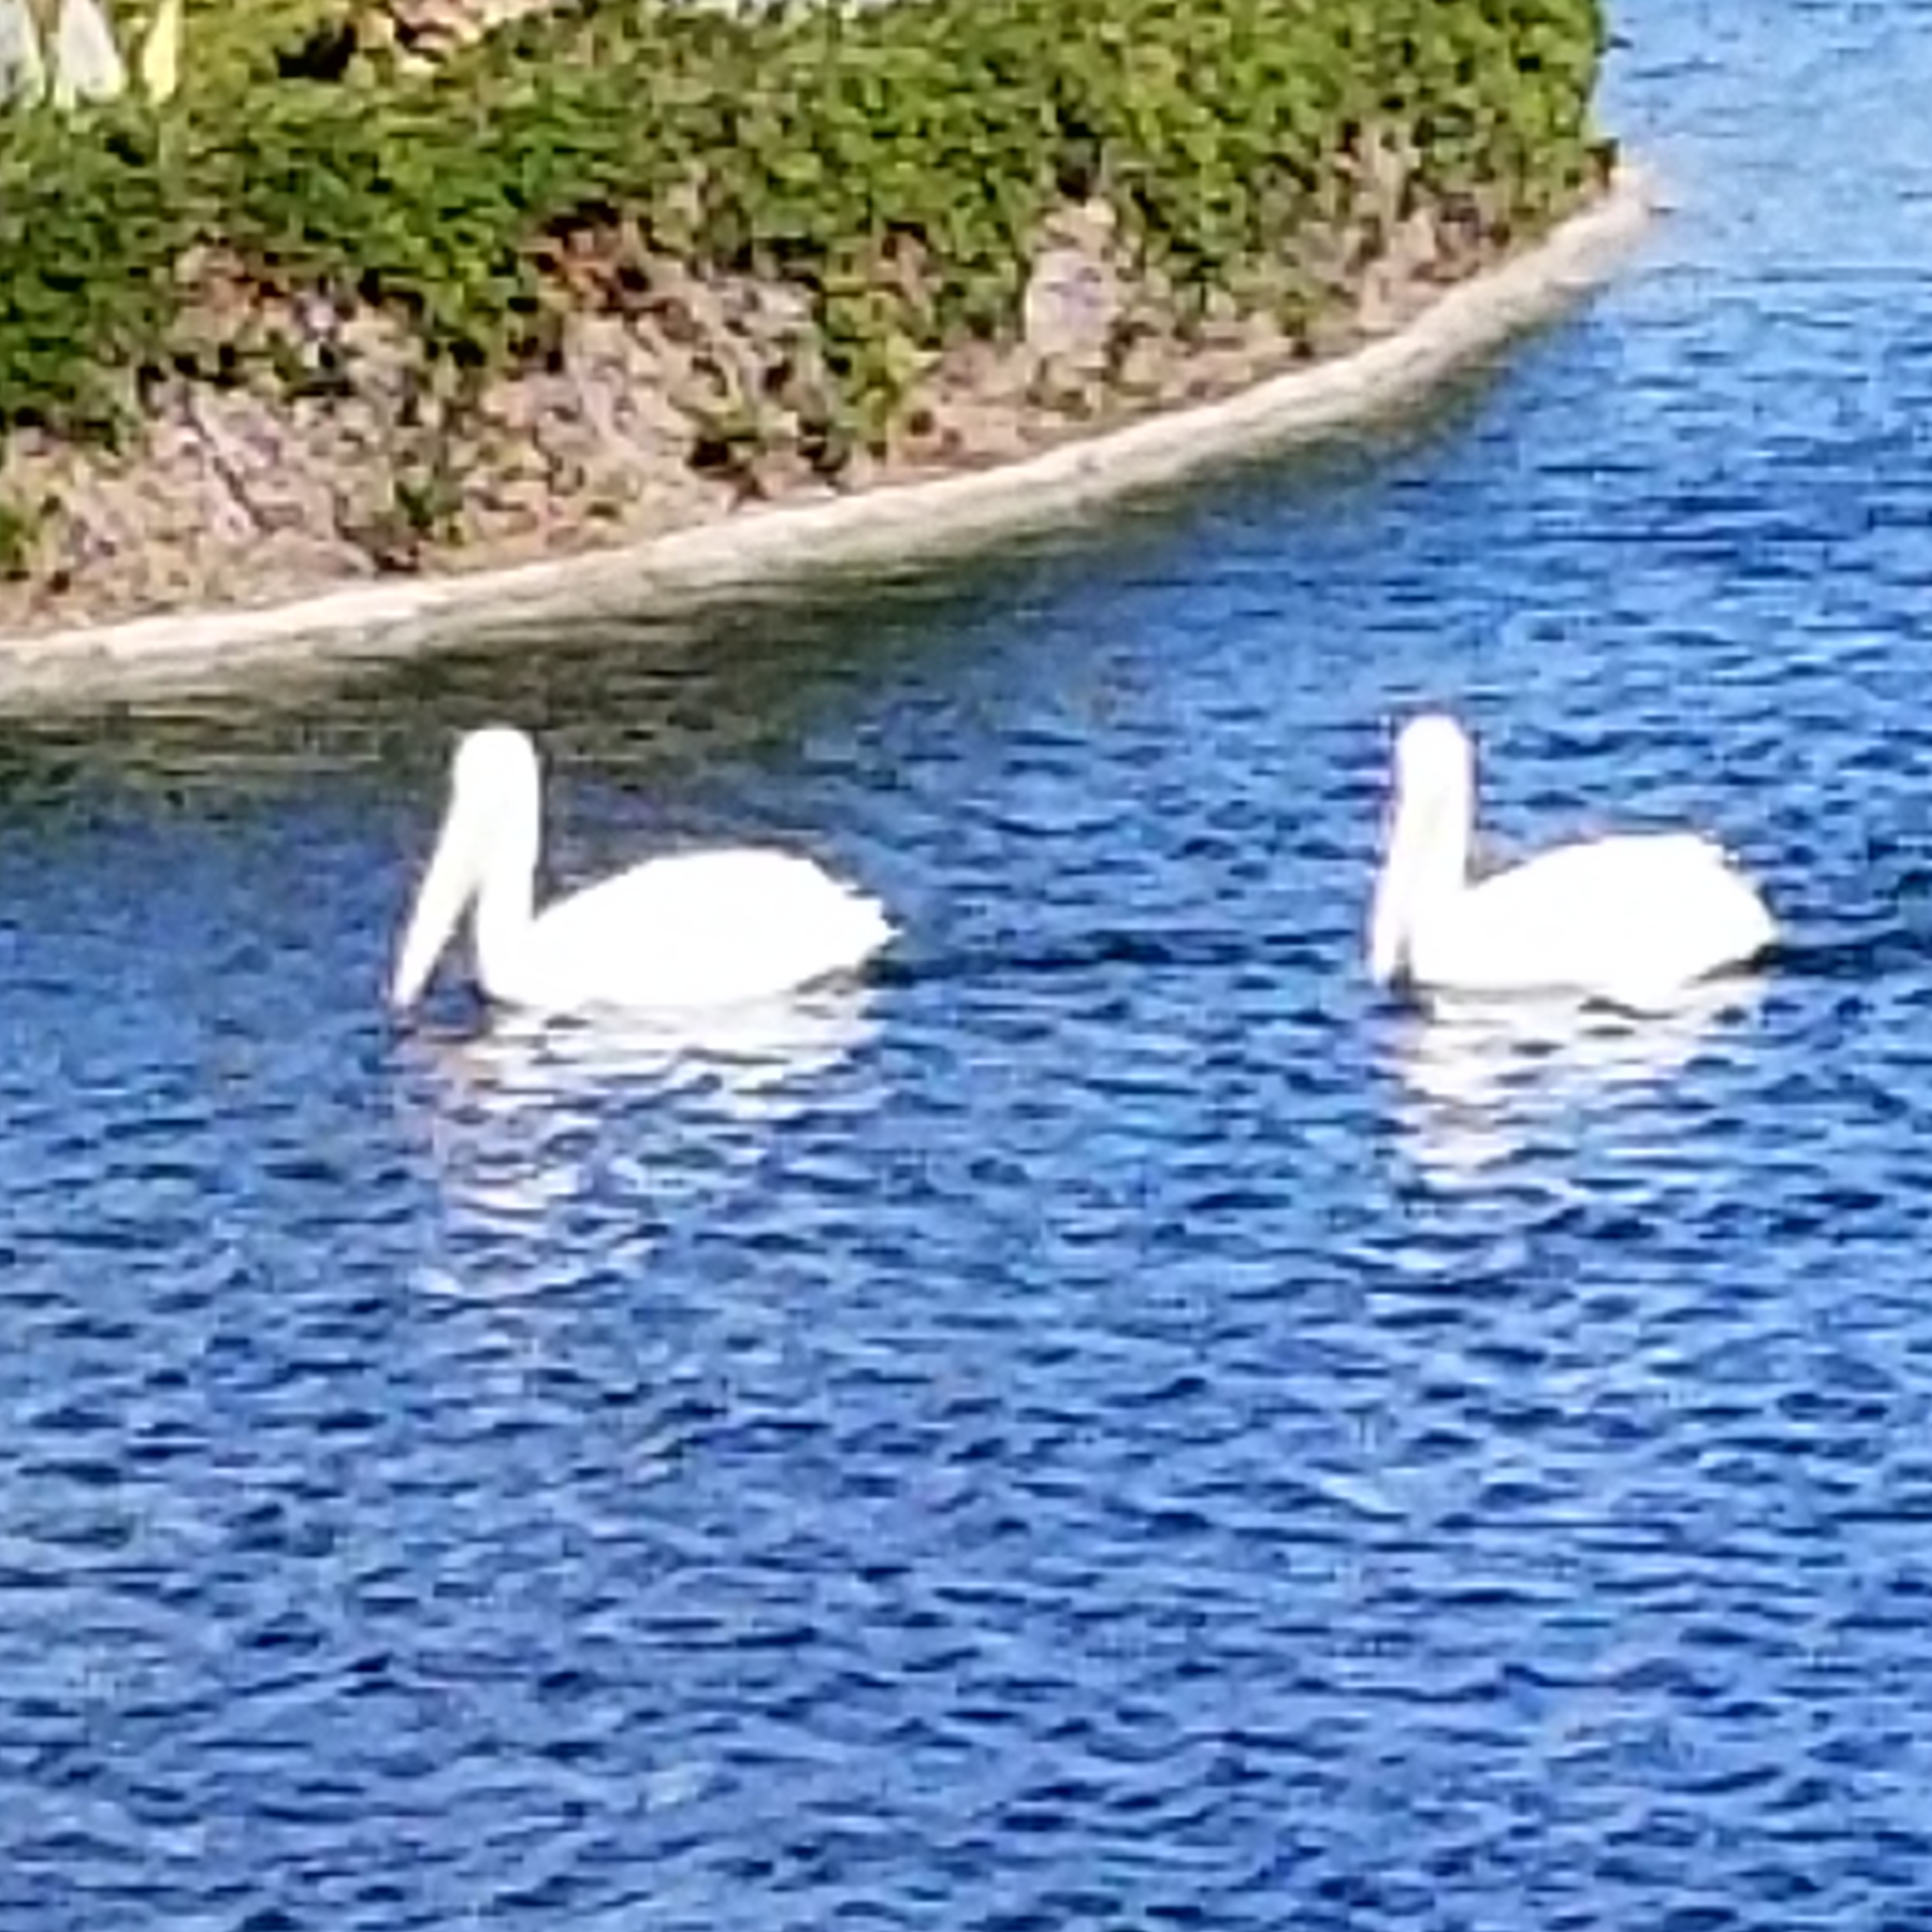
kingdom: Animalia
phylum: Chordata
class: Aves
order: Pelecaniformes
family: Pelecanidae
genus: Pelecanus
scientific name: Pelecanus erythrorhynchos
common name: American white pelican
